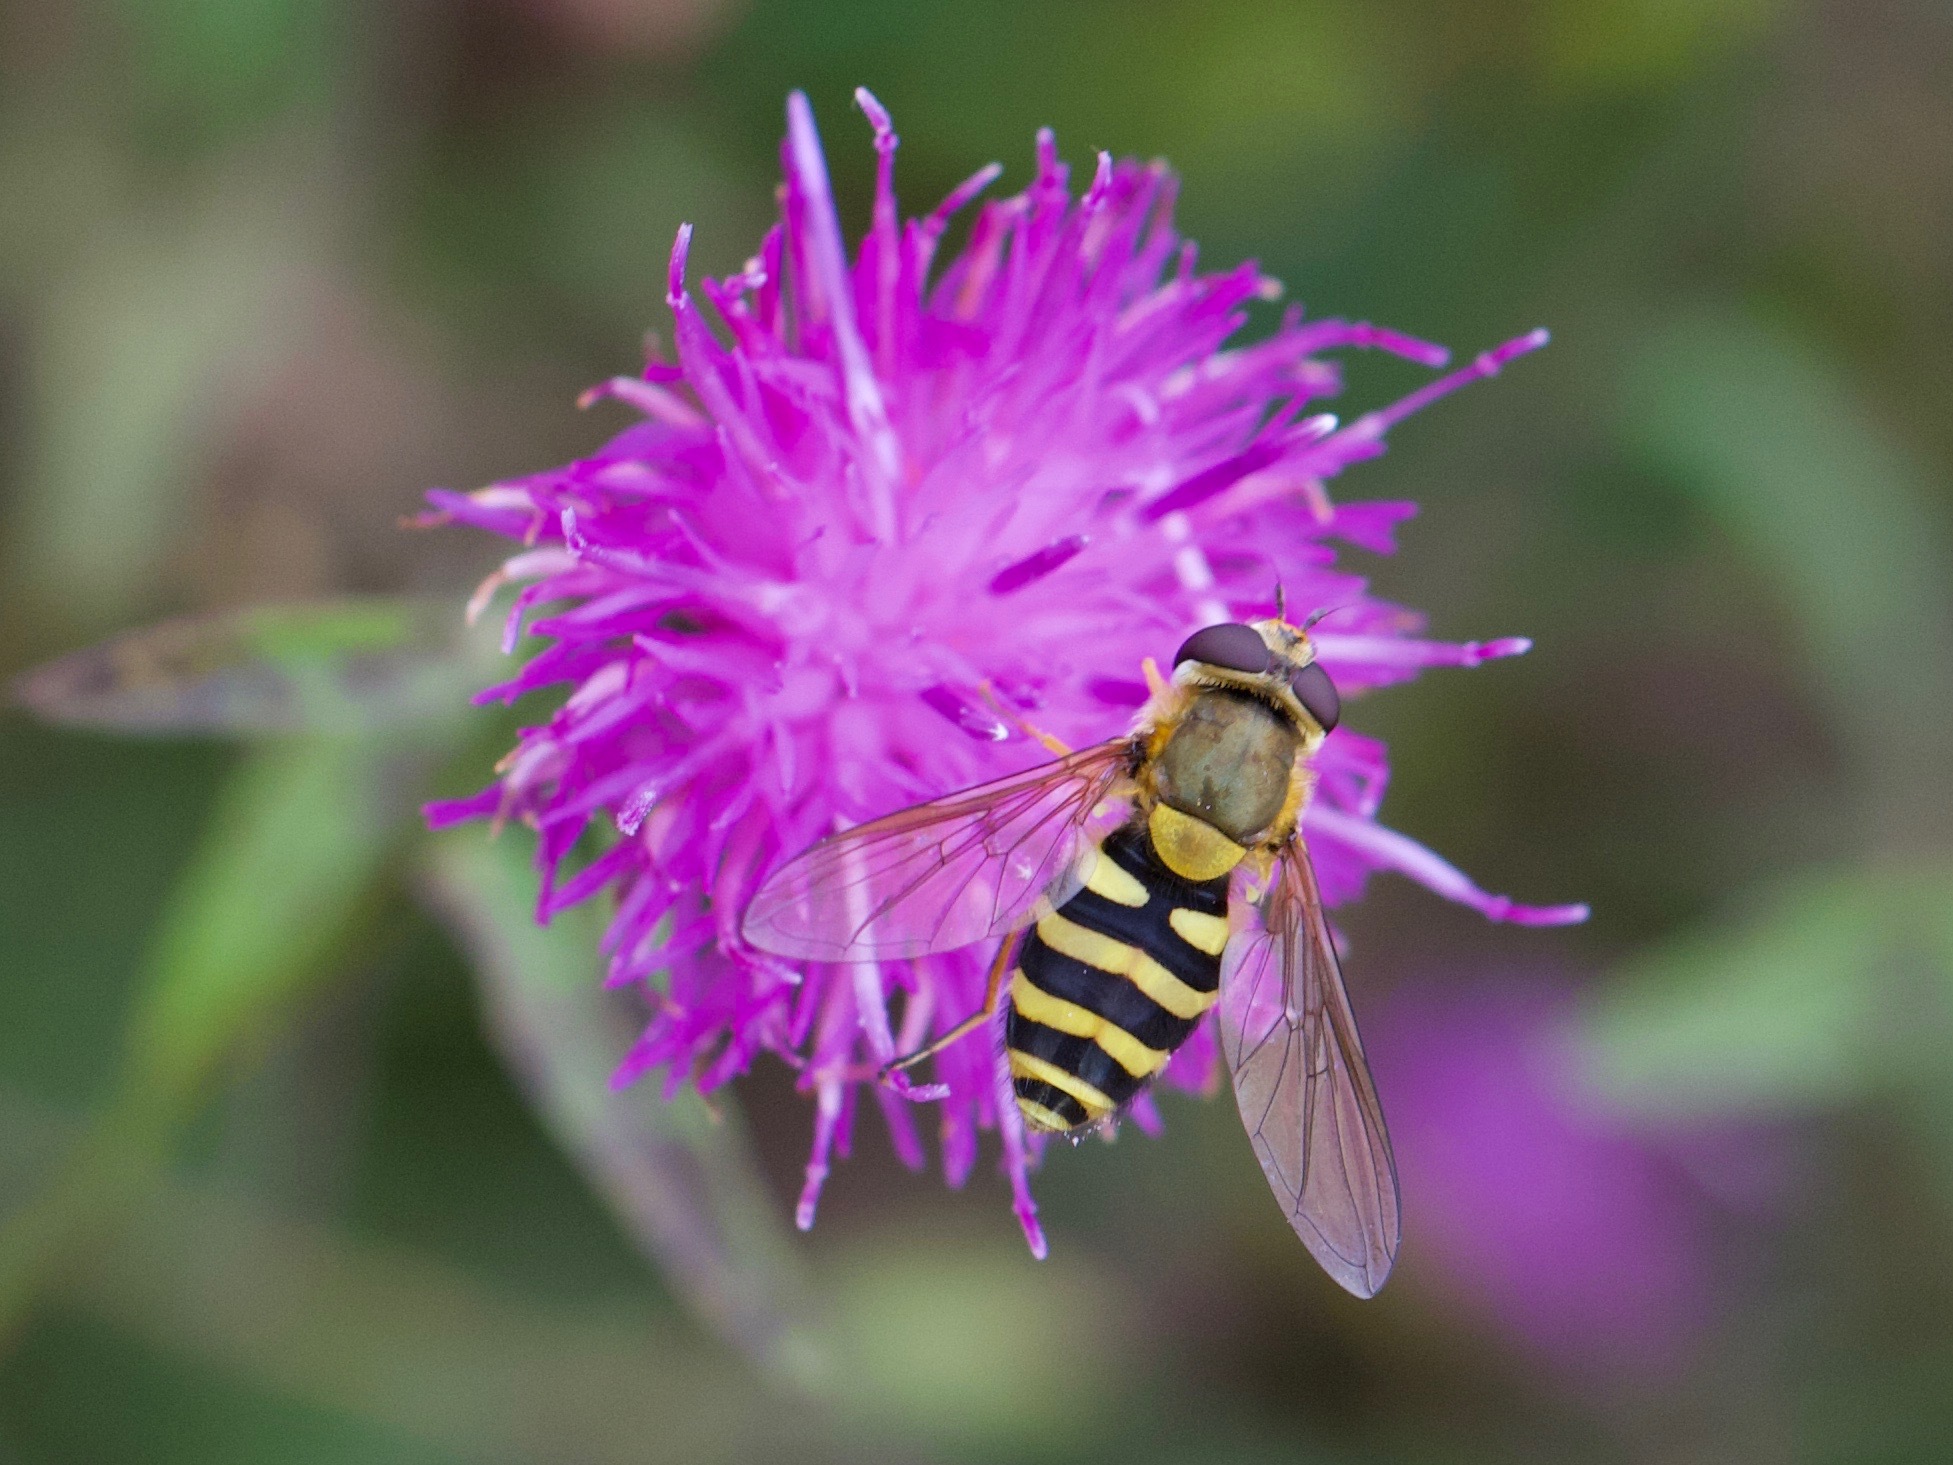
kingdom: Animalia
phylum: Arthropoda
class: Insecta
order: Diptera
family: Syrphidae
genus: Syrphus
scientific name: Syrphus ribesii
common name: Common flower fly
